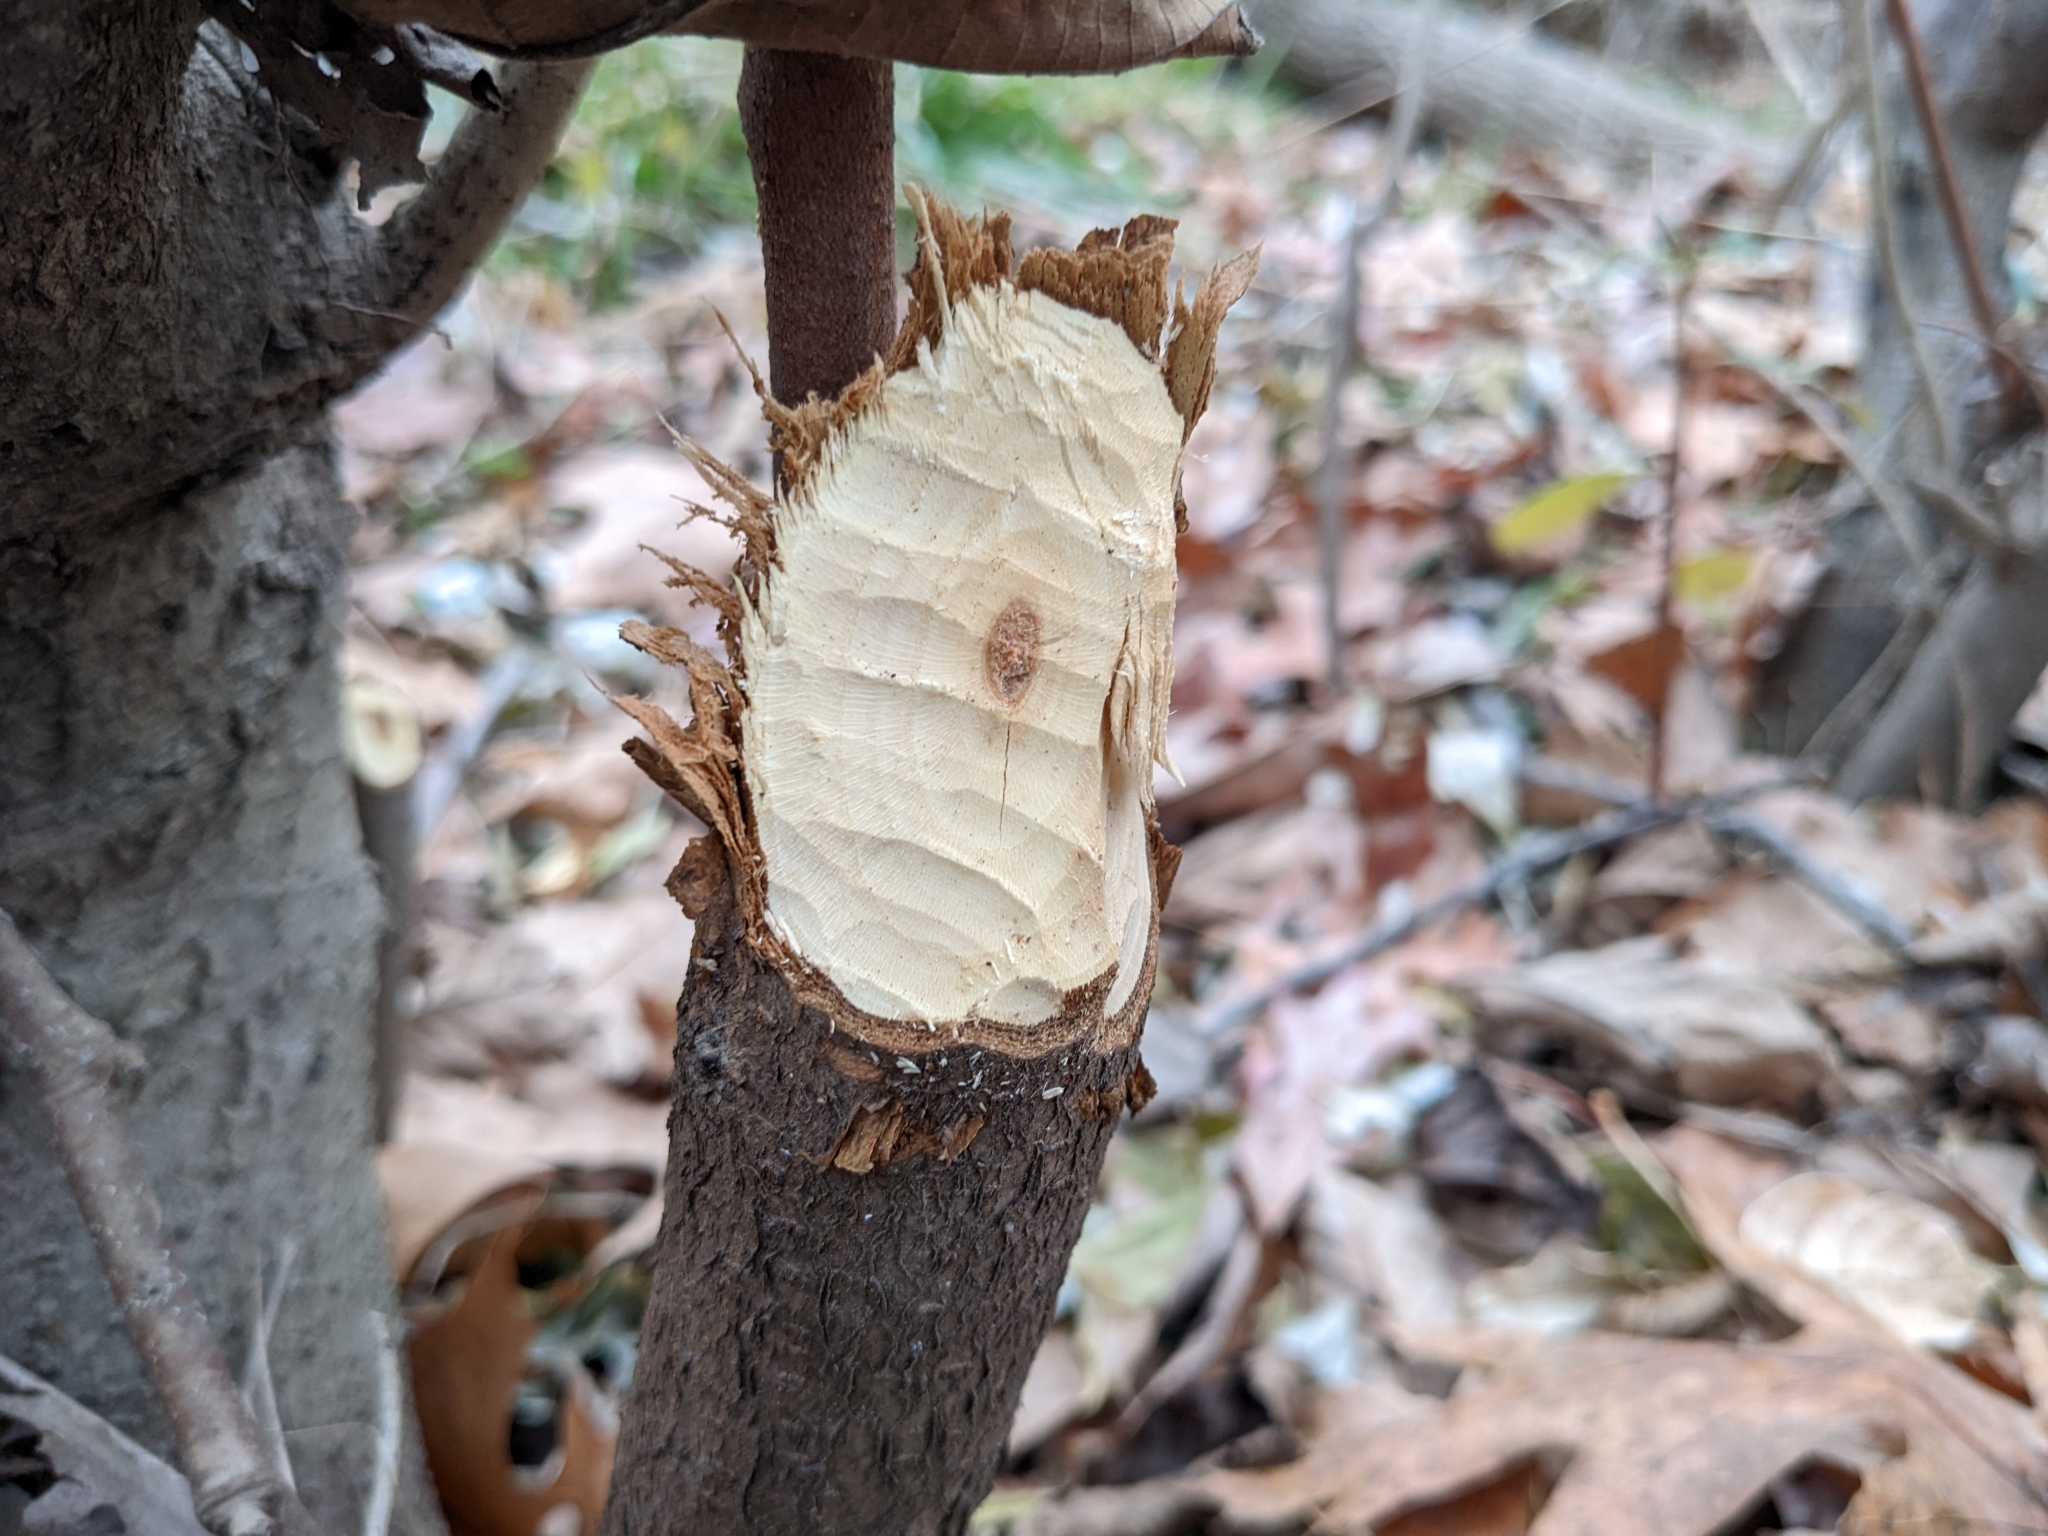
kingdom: Animalia
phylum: Chordata
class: Mammalia
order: Rodentia
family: Castoridae
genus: Castor
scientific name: Castor canadensis
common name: American beaver
